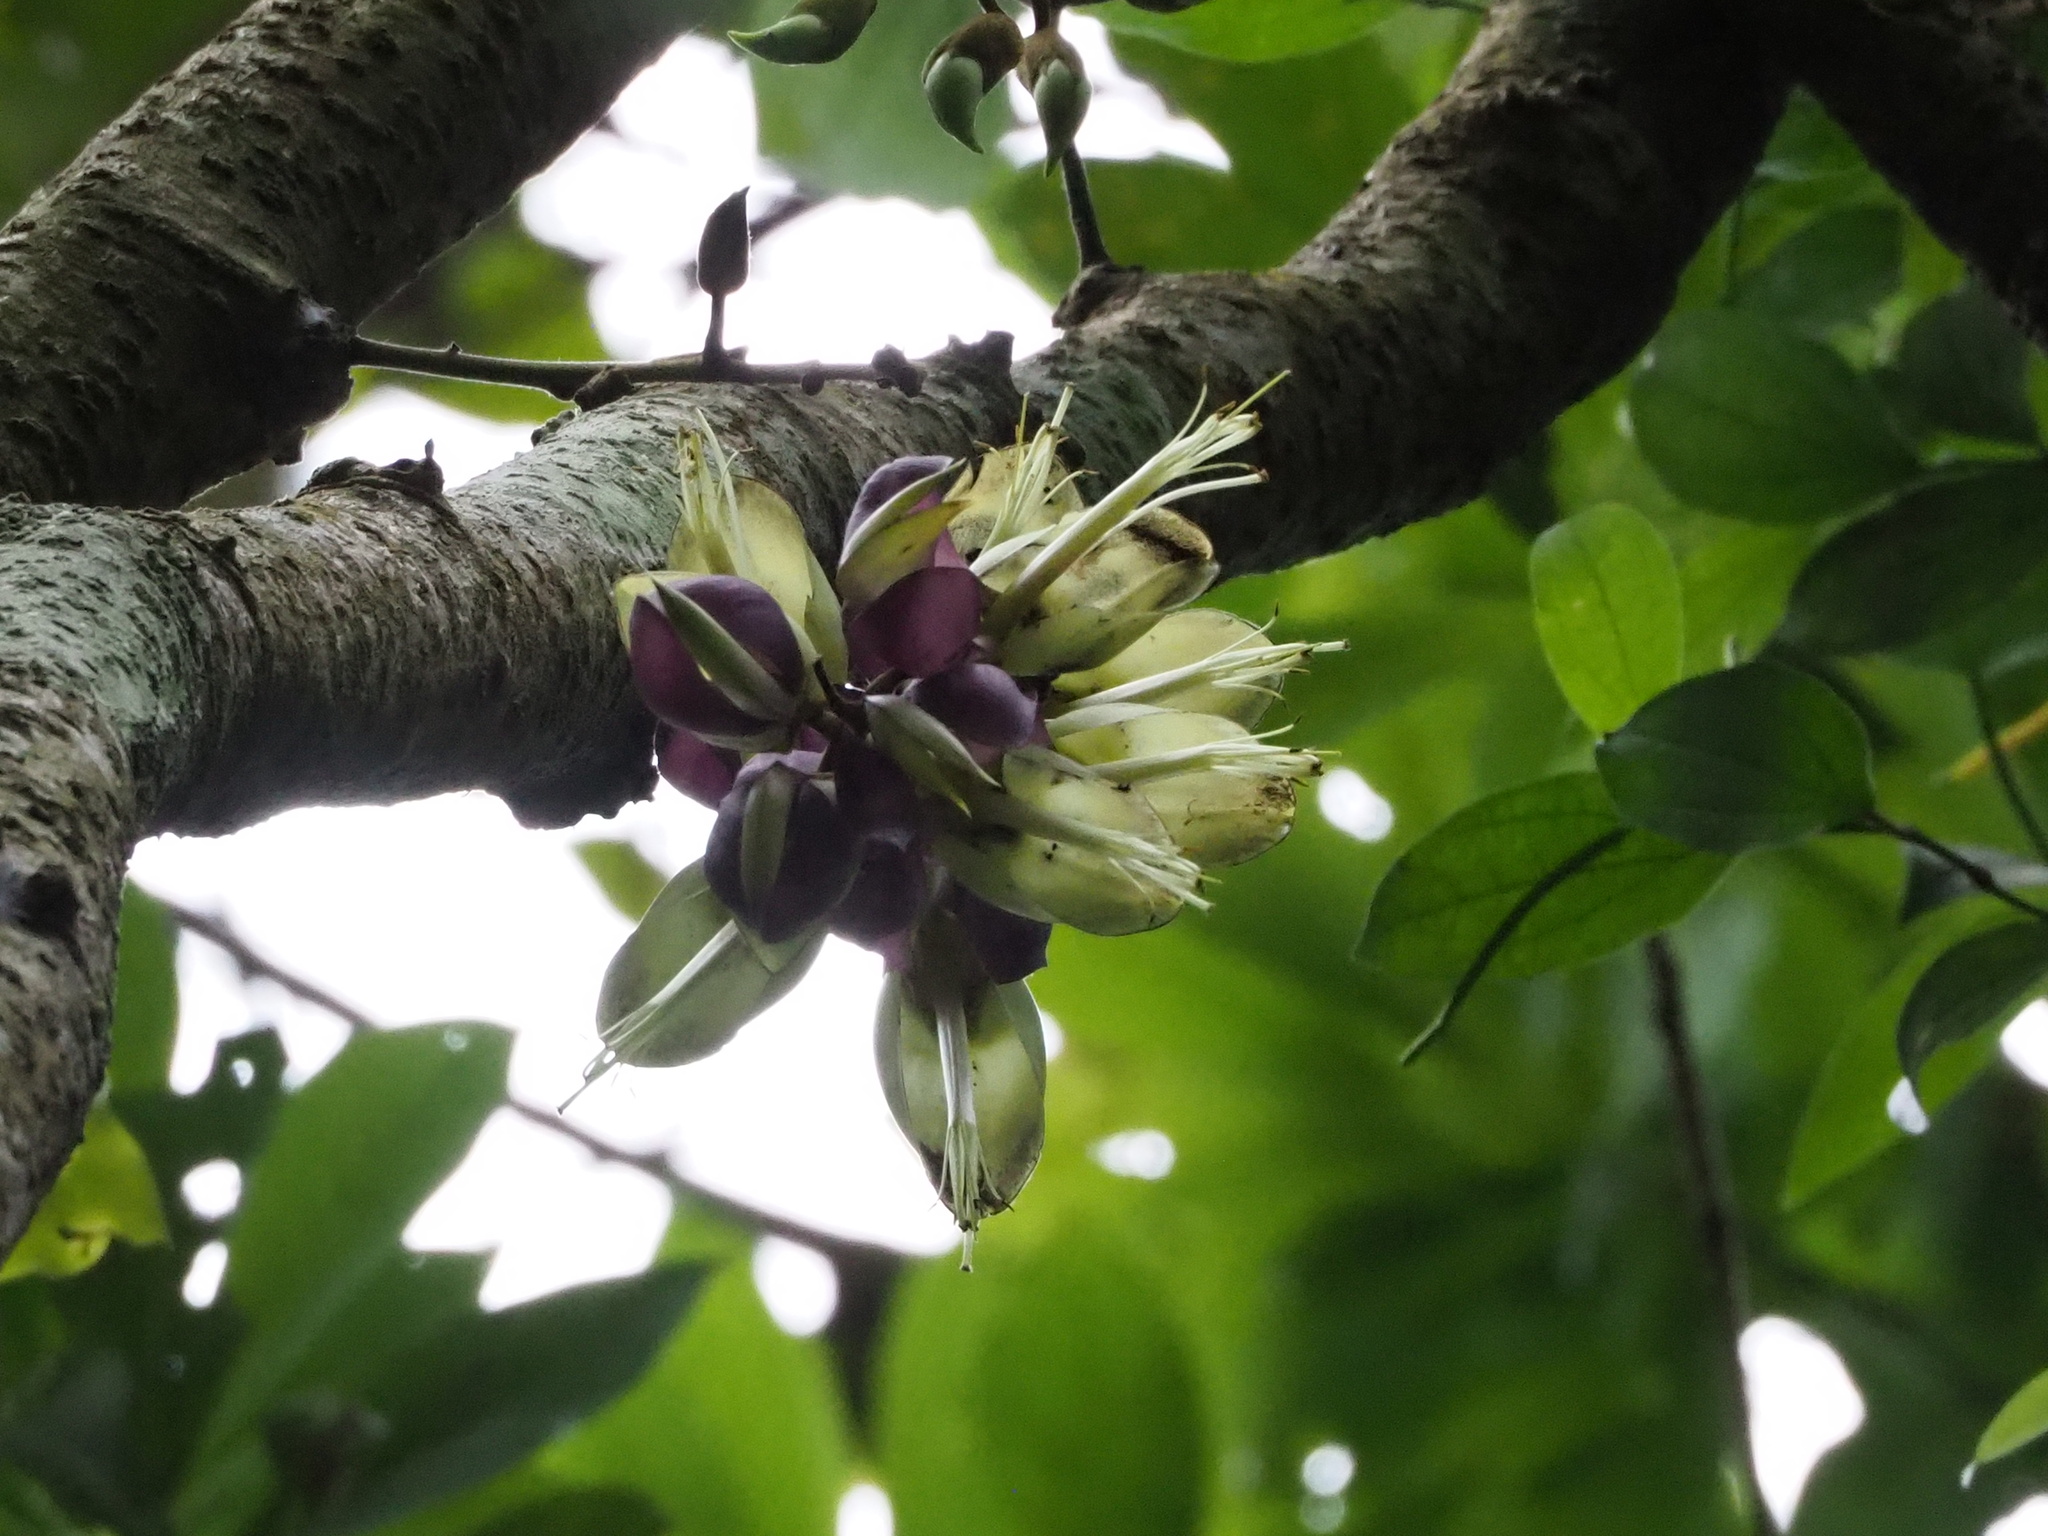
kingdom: Plantae
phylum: Tracheophyta
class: Magnoliopsida
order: Fabales
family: Fabaceae
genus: Mucuna
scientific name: Mucuna macrocarpa
